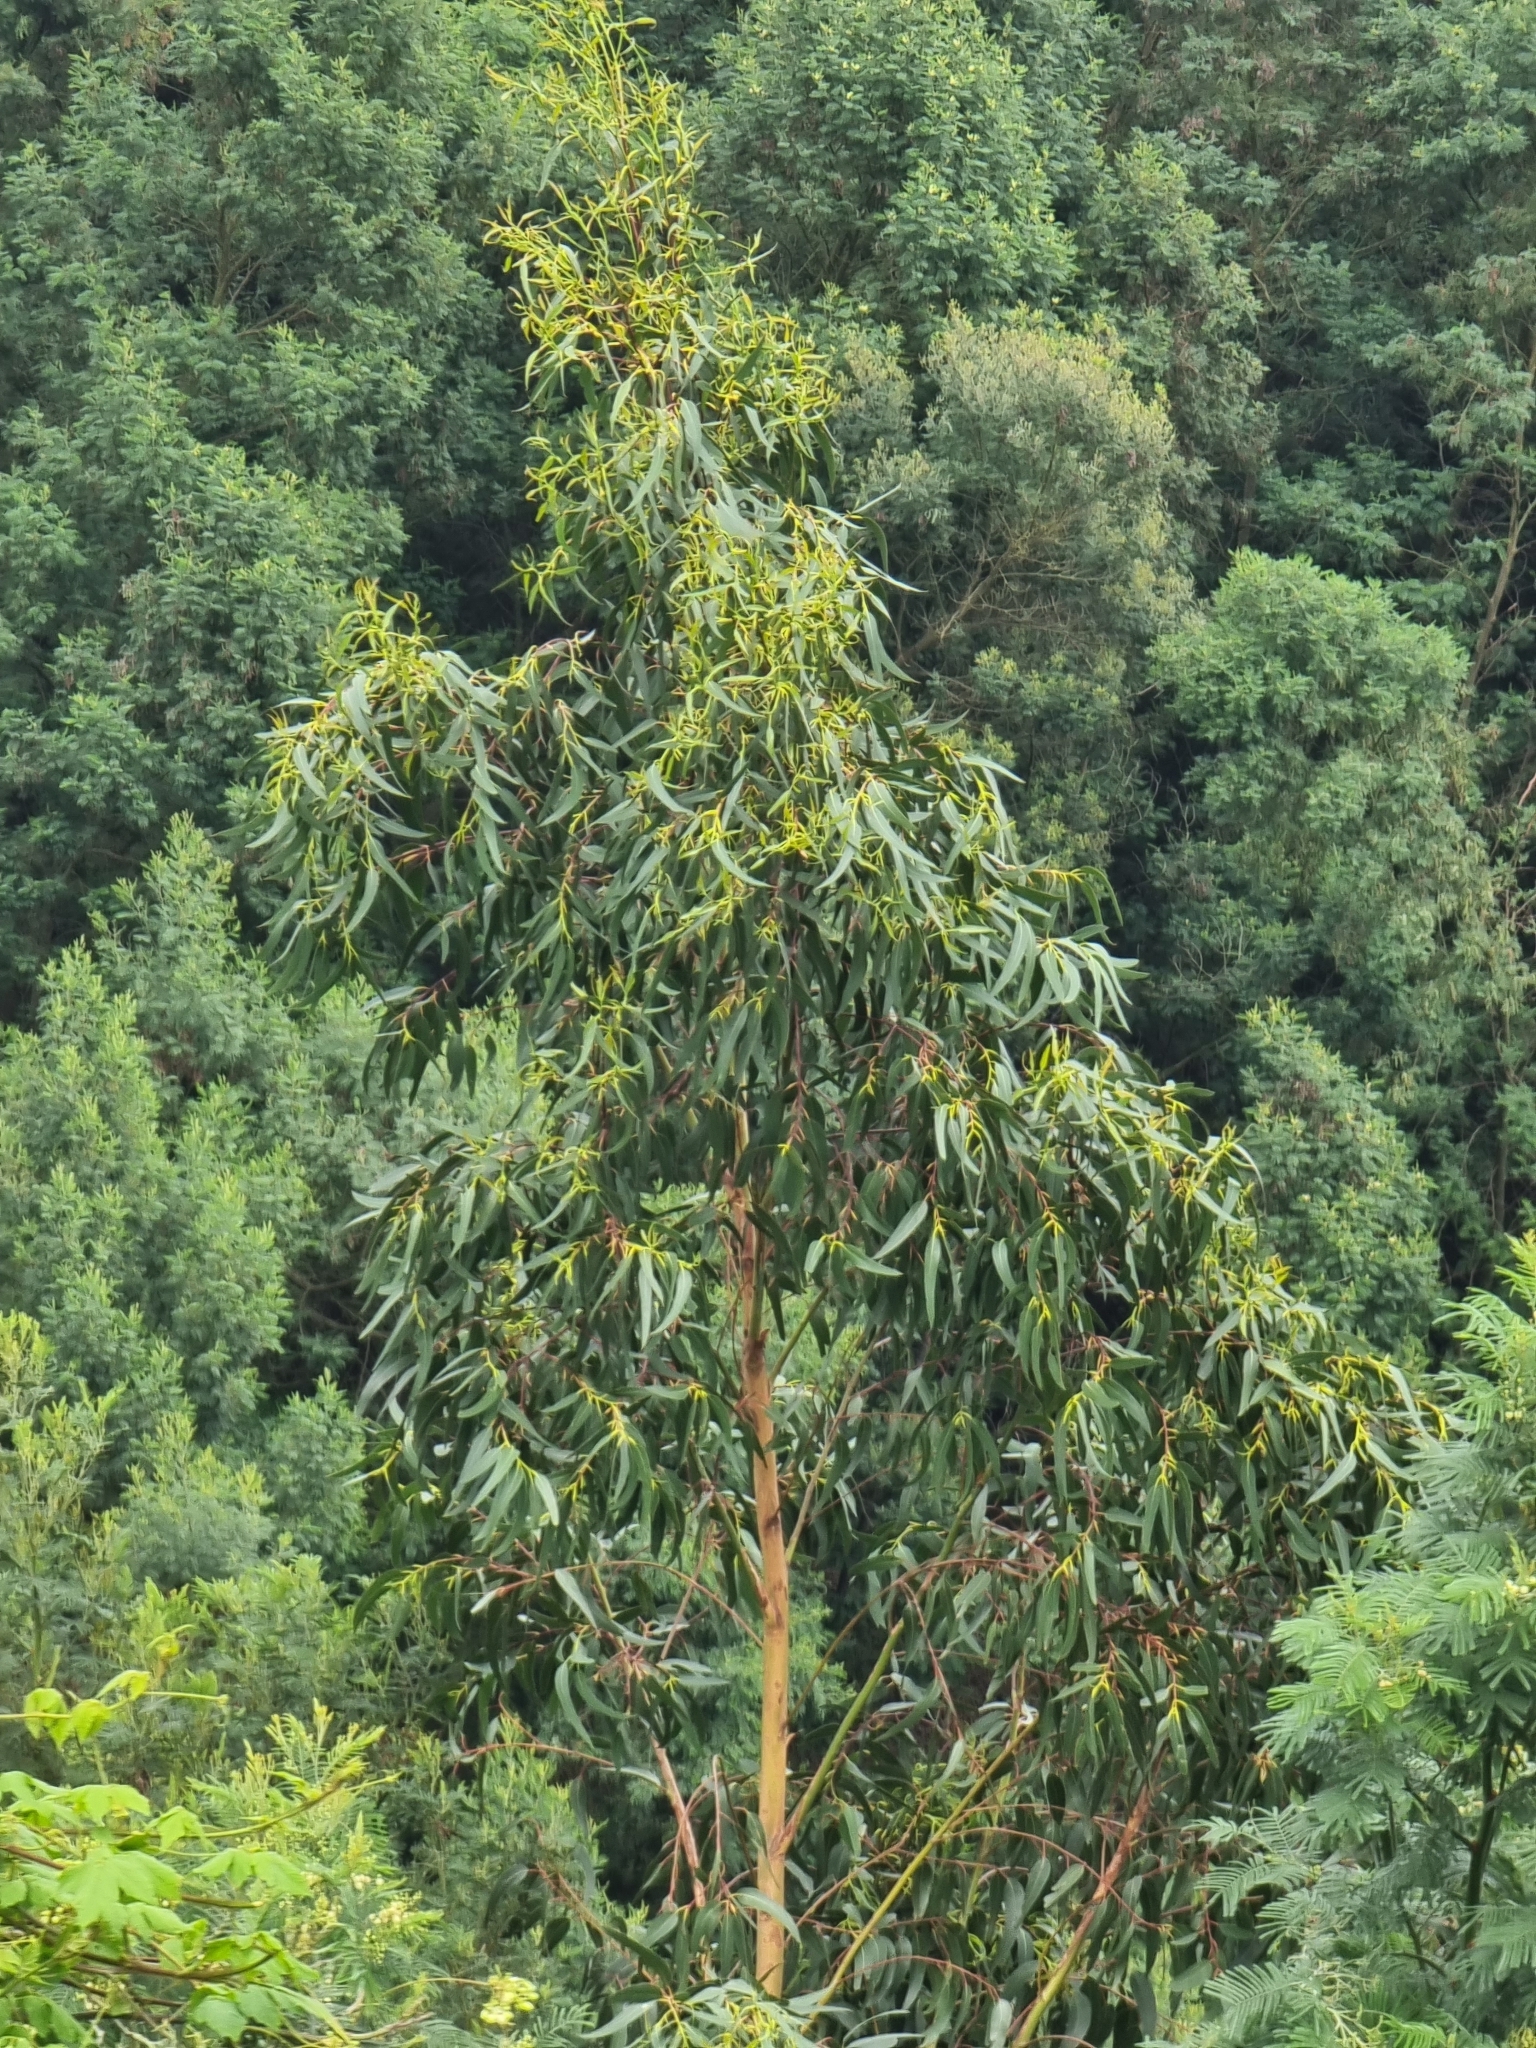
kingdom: Plantae
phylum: Tracheophyta
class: Magnoliopsida
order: Myrtales
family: Myrtaceae
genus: Eucalyptus
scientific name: Eucalyptus globulus
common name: Southern blue-gum
